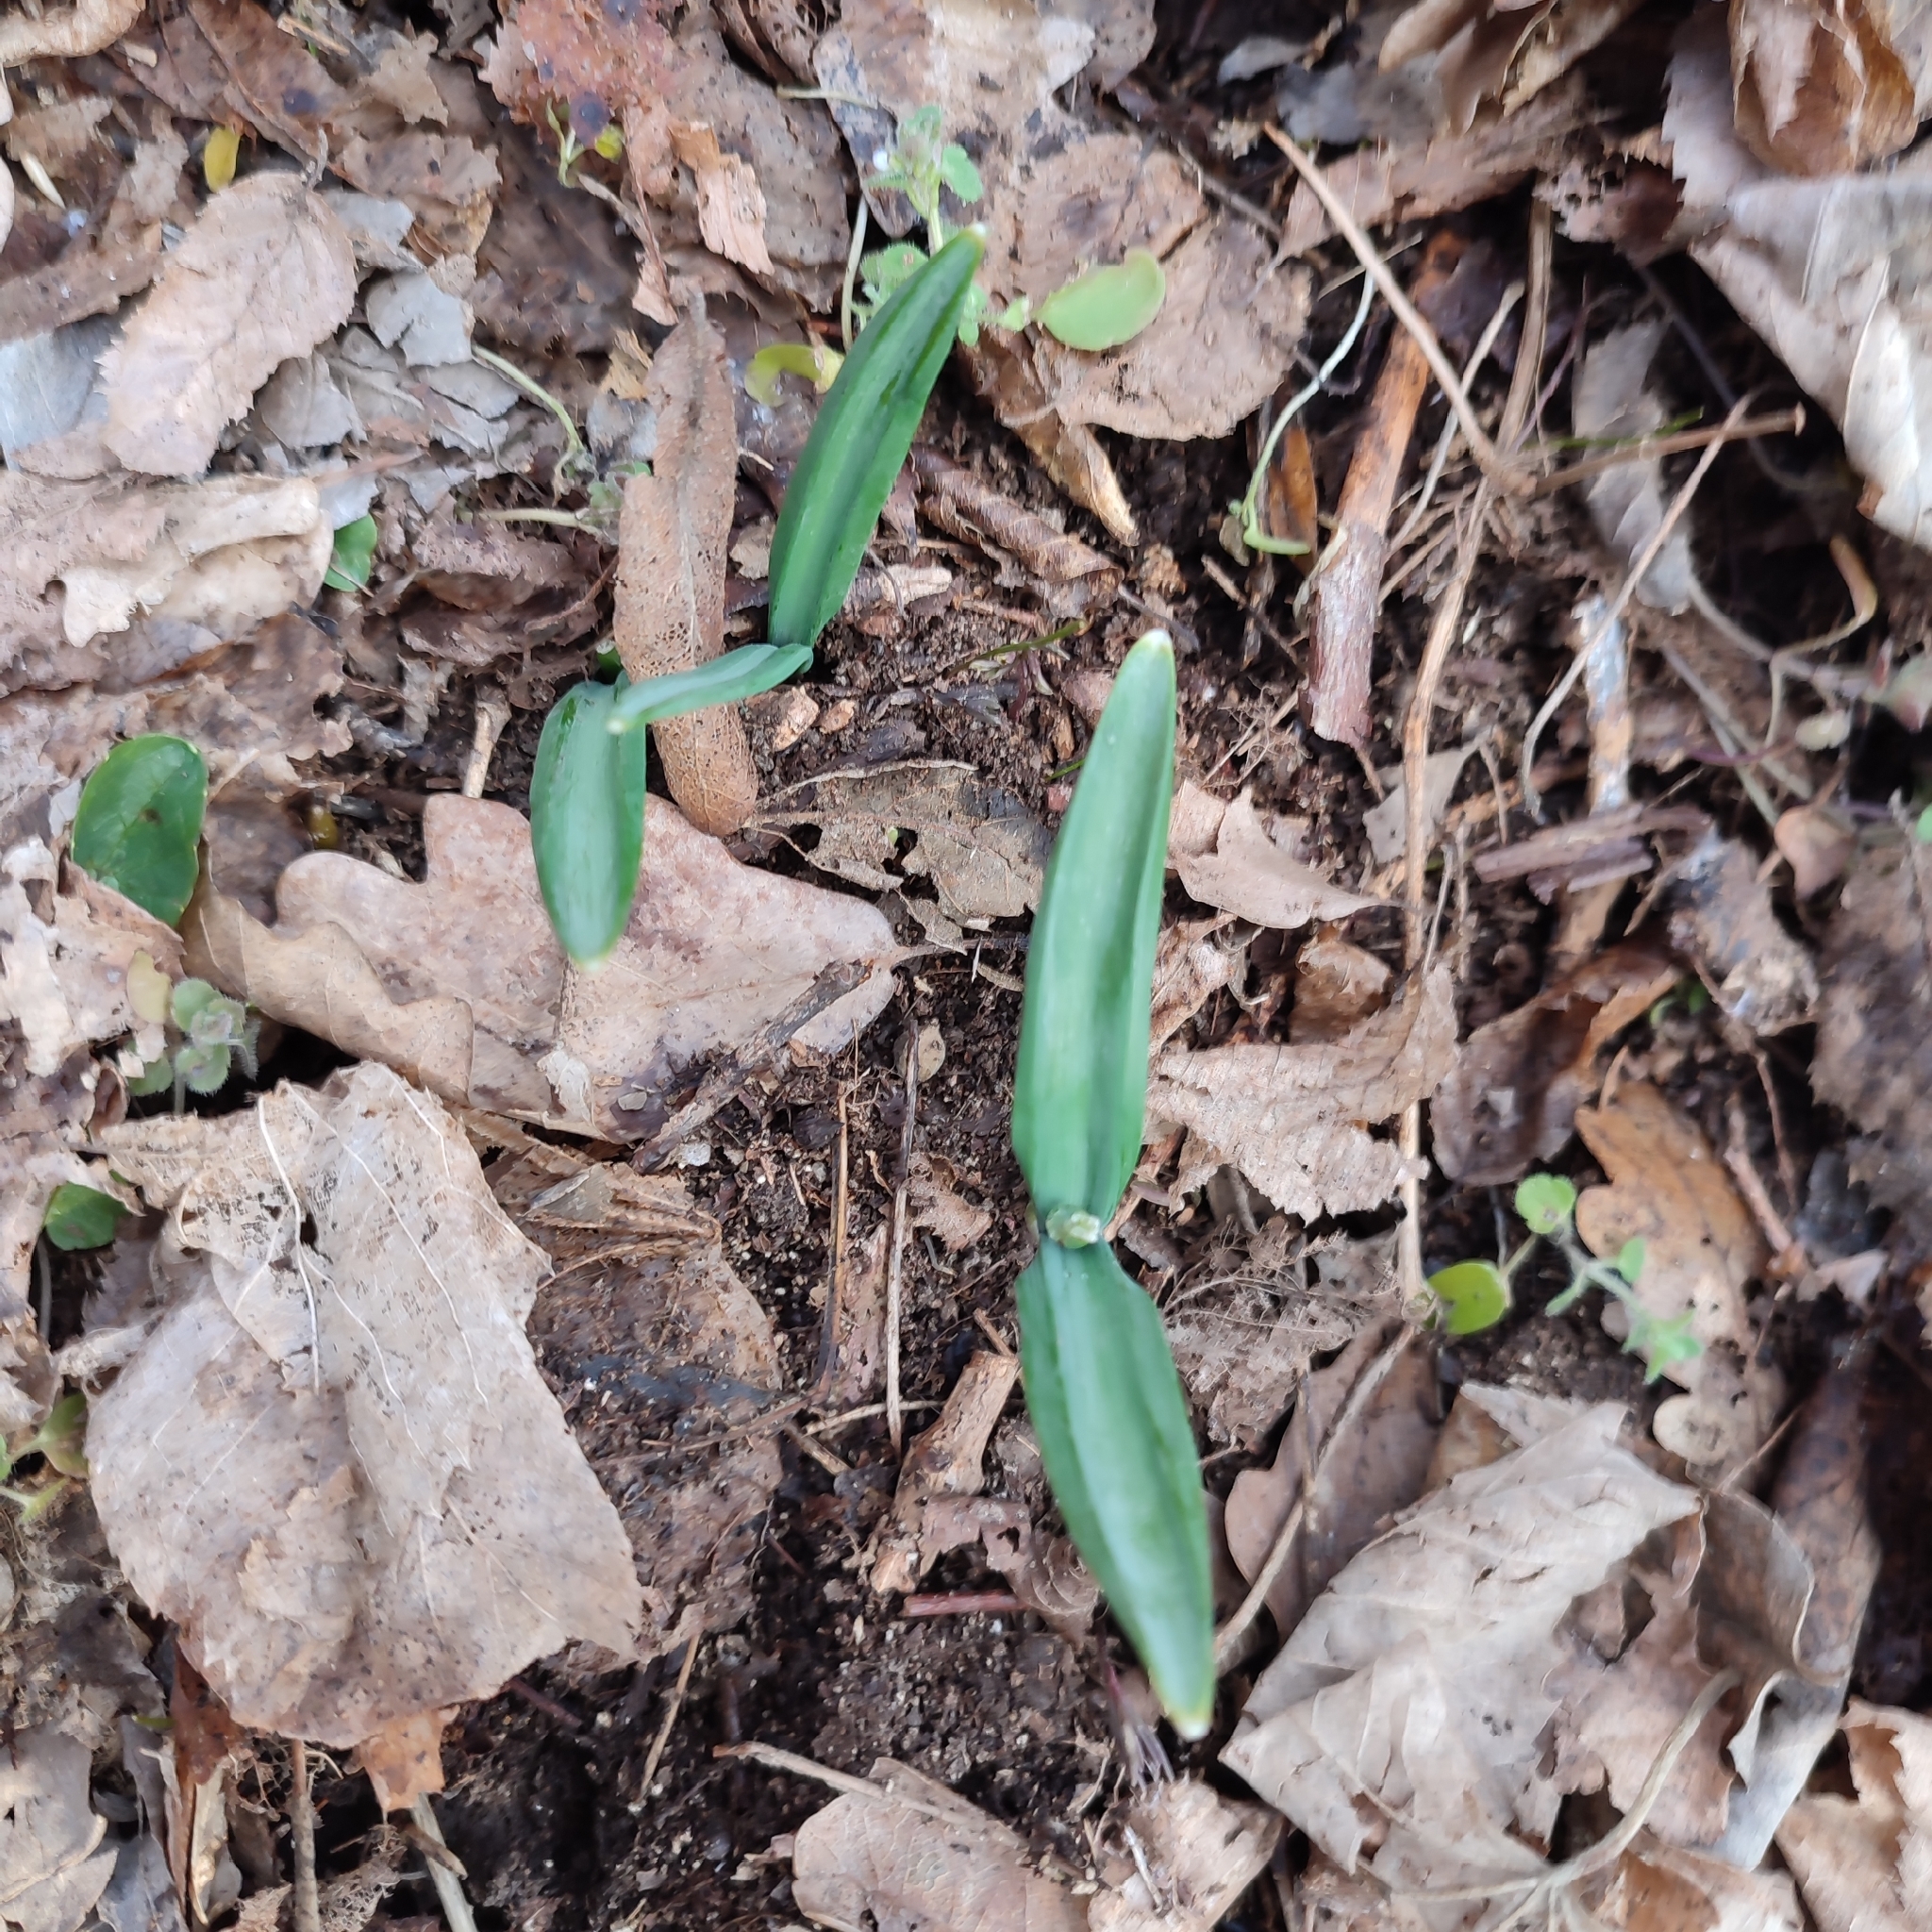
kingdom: Plantae
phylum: Tracheophyta
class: Liliopsida
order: Asparagales
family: Amaryllidaceae
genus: Galanthus
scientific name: Galanthus plicatus
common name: Pleated snowdrop
